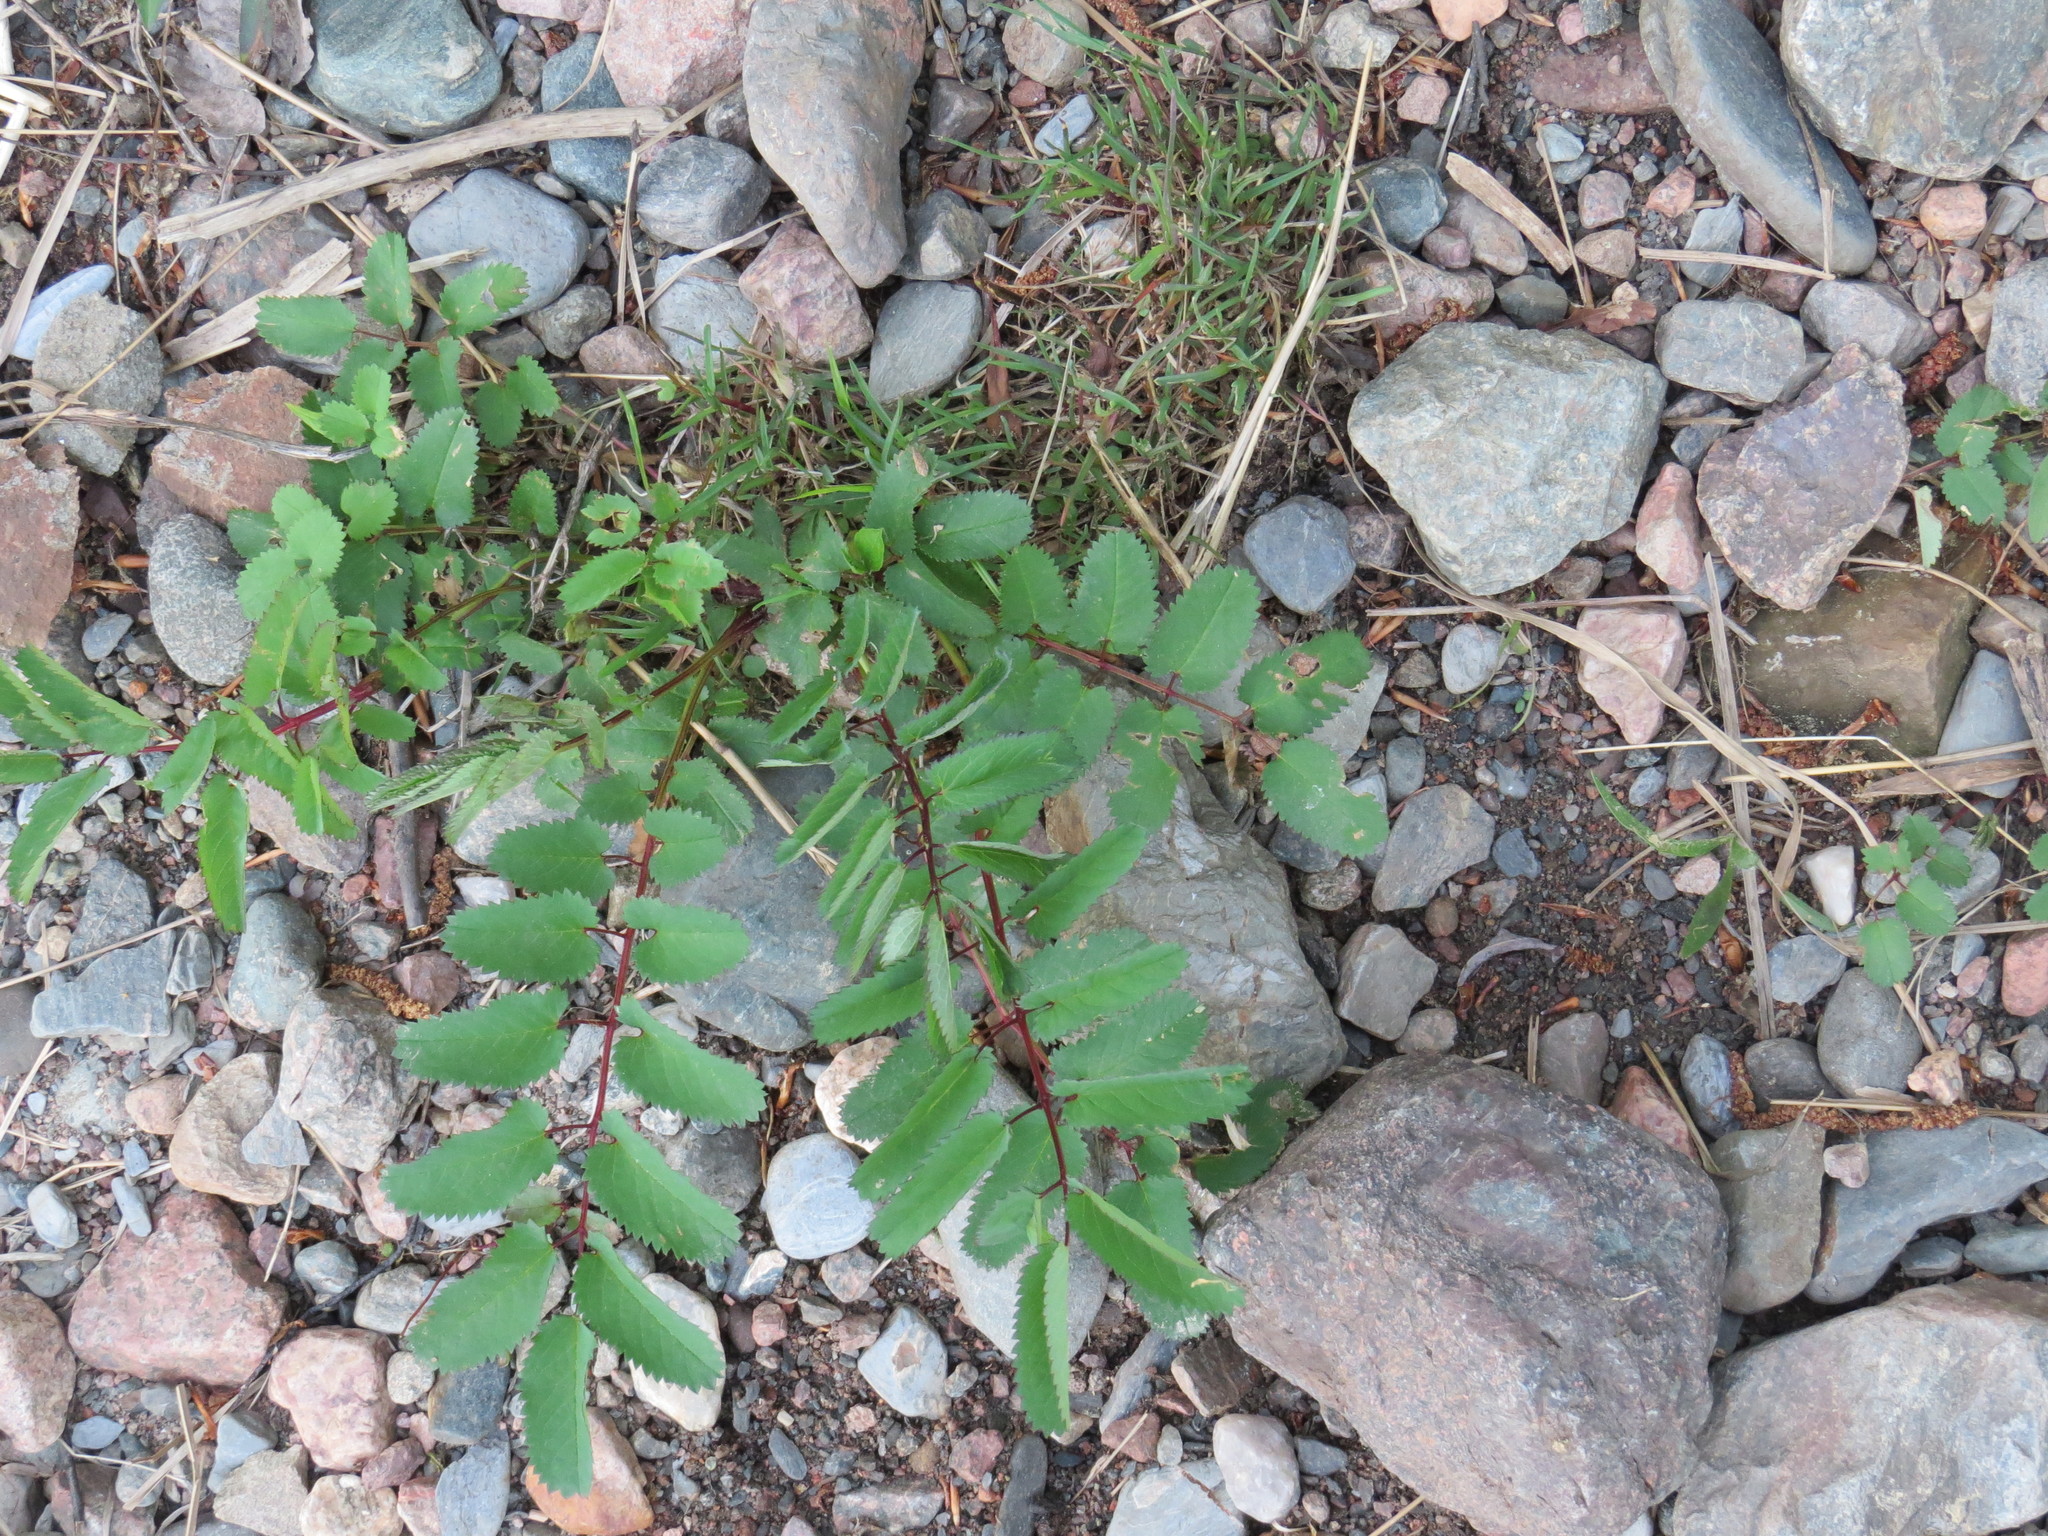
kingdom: Plantae
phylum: Tracheophyta
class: Magnoliopsida
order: Rosales
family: Rosaceae
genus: Sanguisorba
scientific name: Sanguisorba canadensis
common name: White burnet
